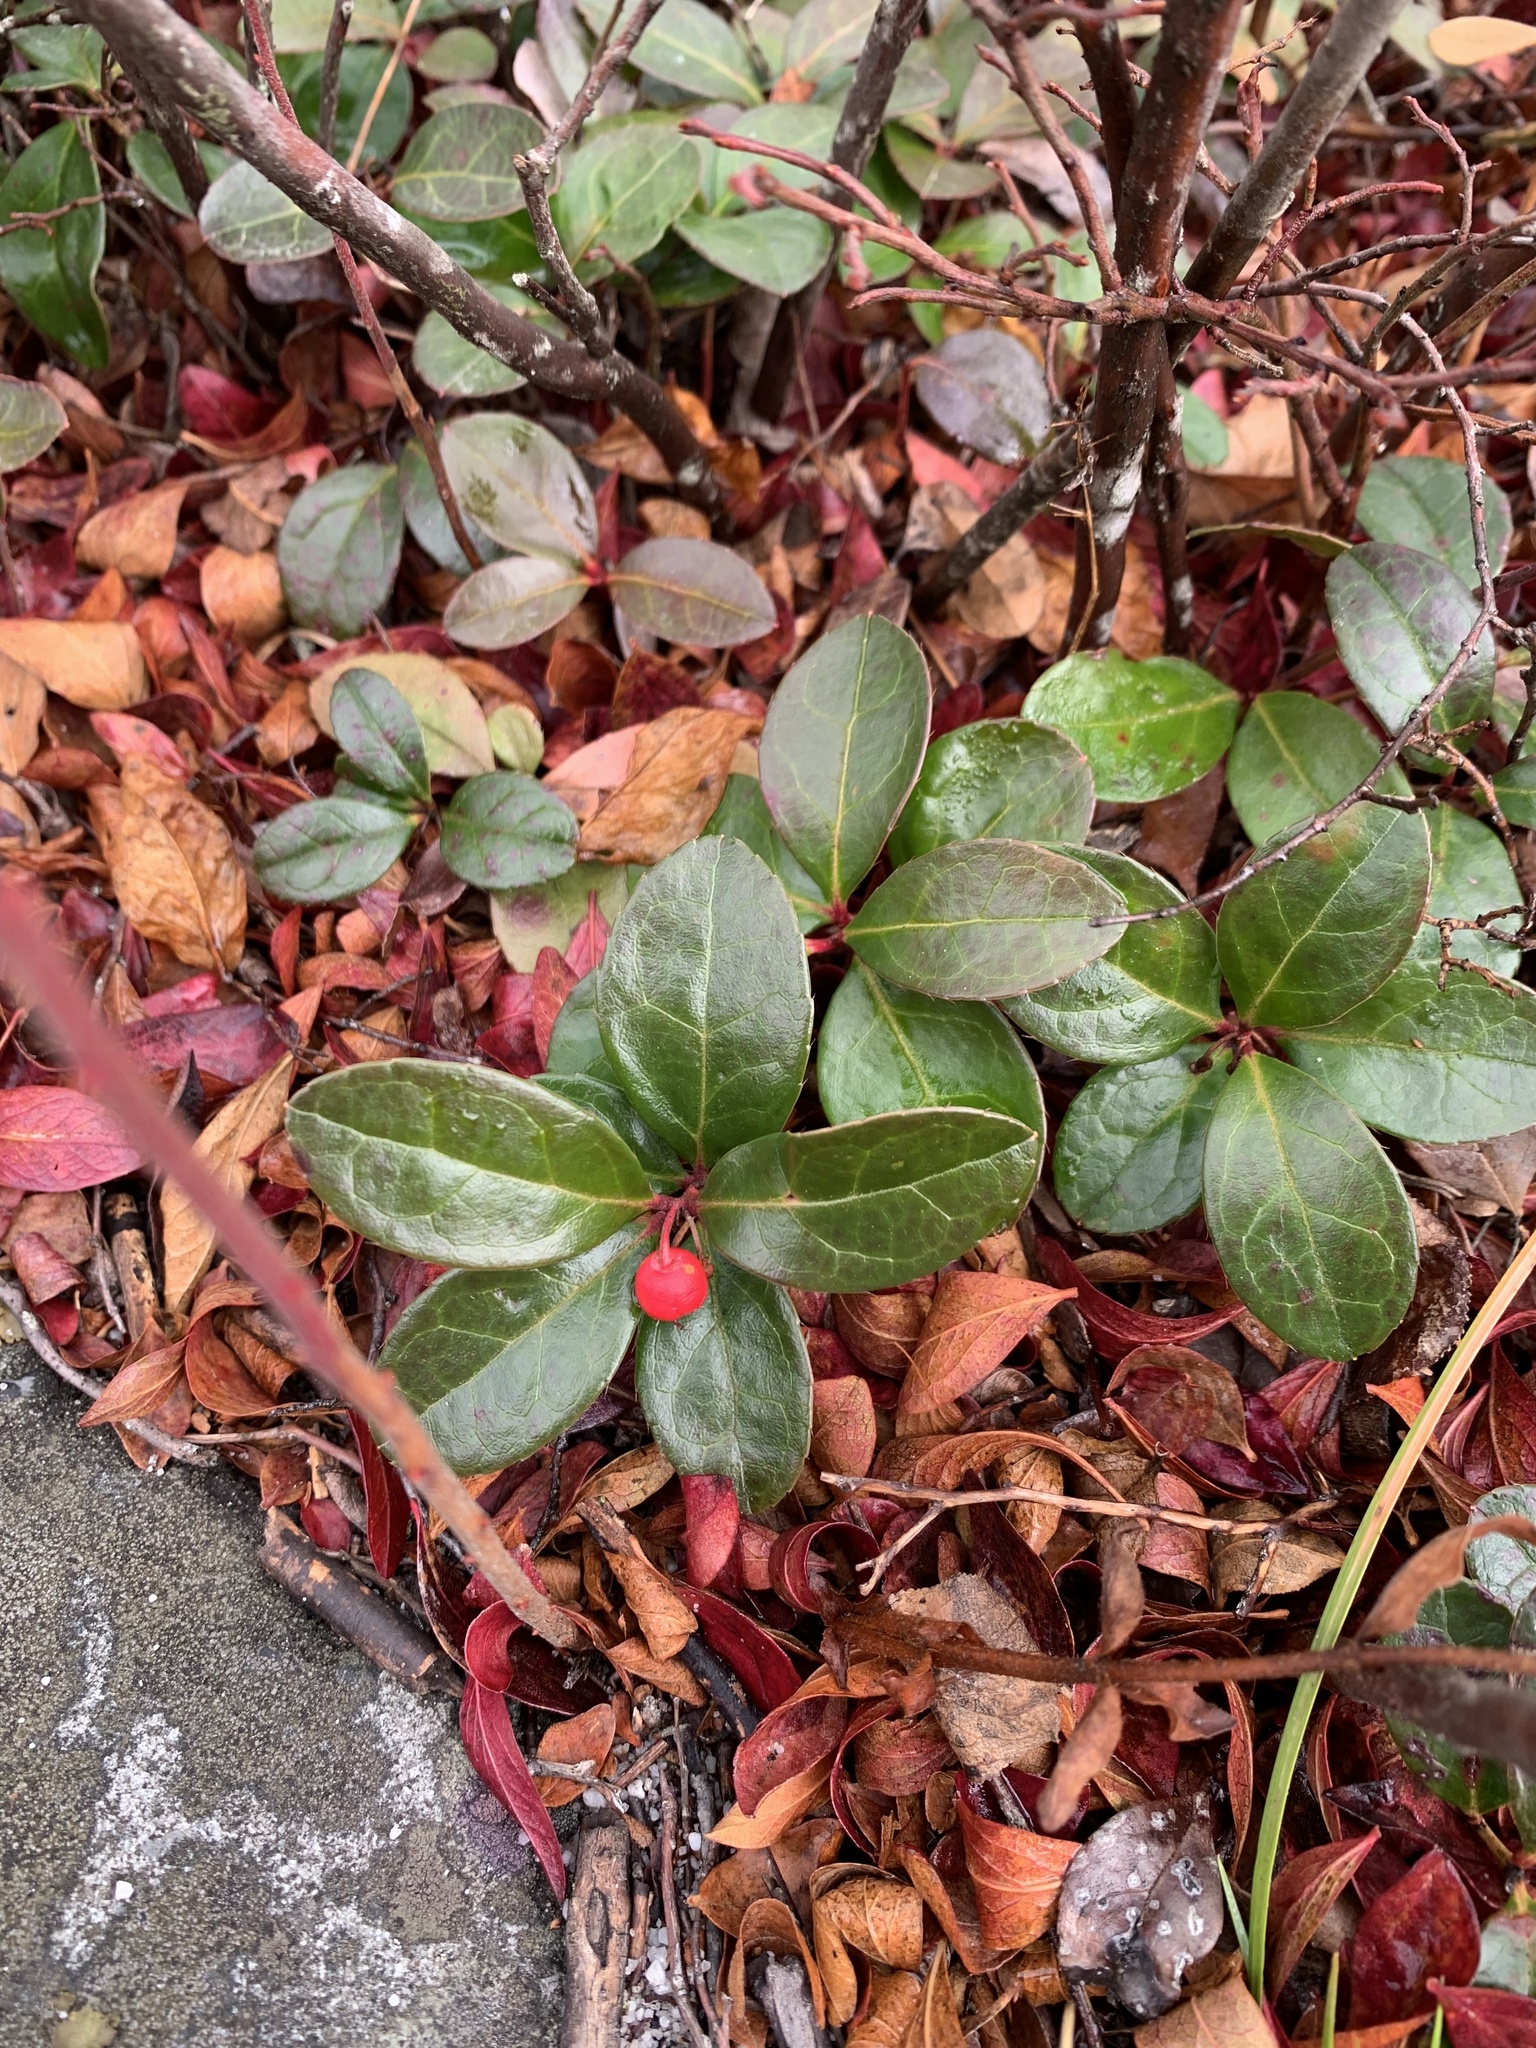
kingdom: Plantae
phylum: Tracheophyta
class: Magnoliopsida
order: Ericales
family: Ericaceae
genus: Gaultheria
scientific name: Gaultheria procumbens
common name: Checkerberry
